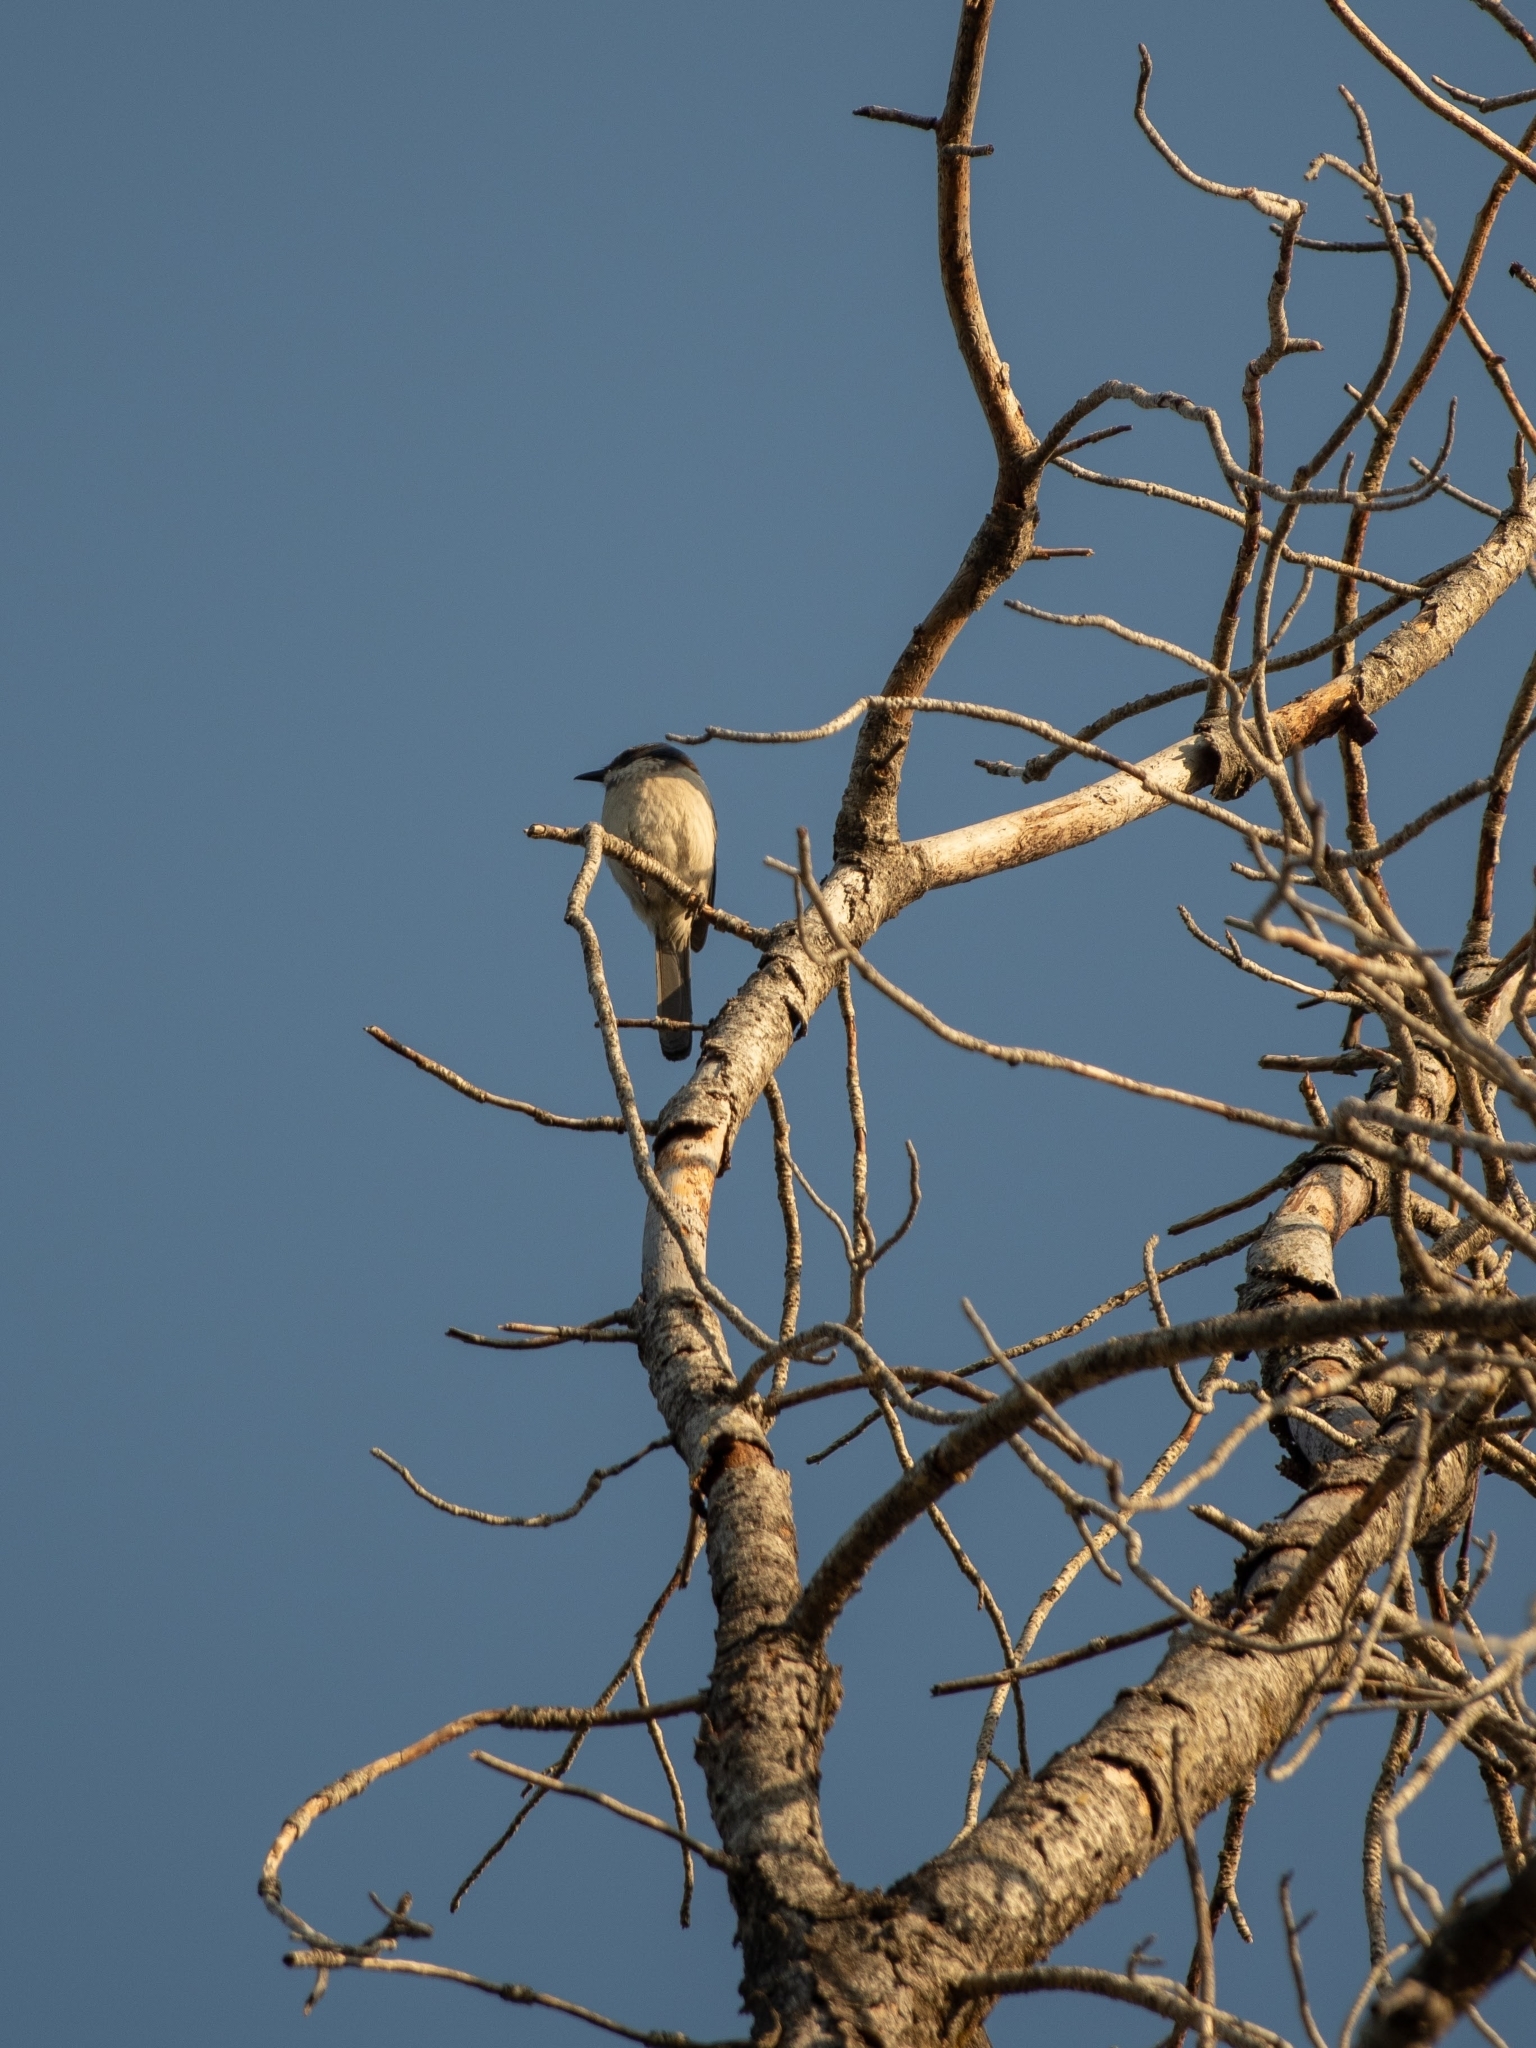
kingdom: Animalia
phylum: Chordata
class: Aves
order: Passeriformes
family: Corvidae
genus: Aphelocoma
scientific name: Aphelocoma californica
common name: California scrub-jay
